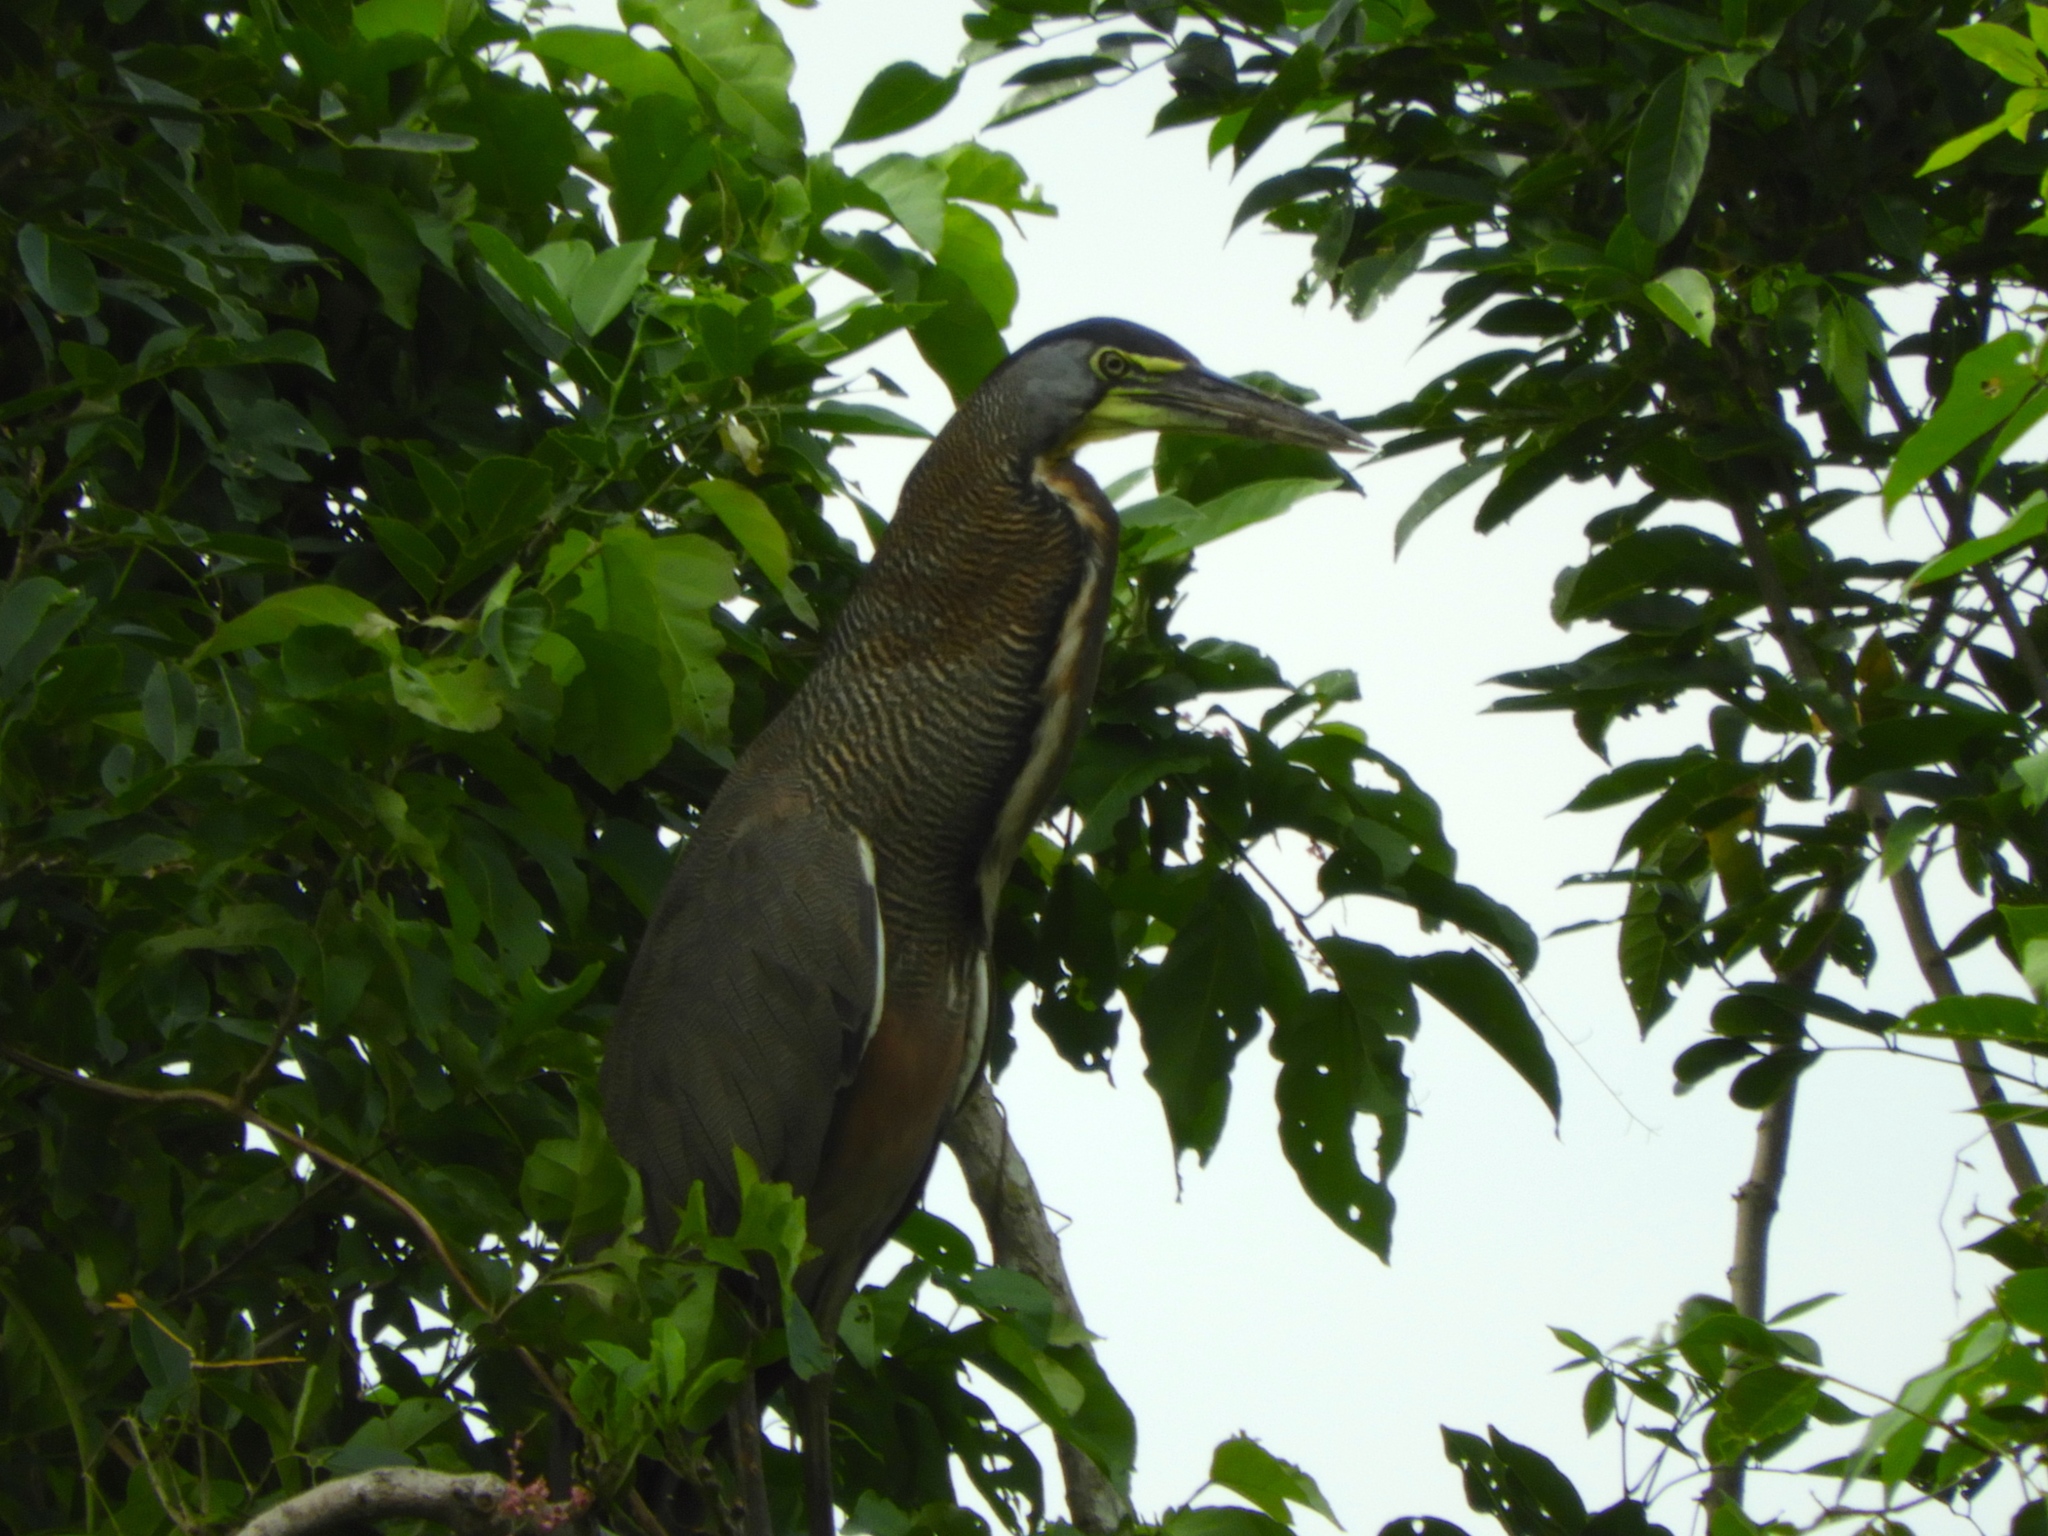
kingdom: Animalia
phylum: Chordata
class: Aves
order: Pelecaniformes
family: Ardeidae
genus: Tigrisoma
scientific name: Tigrisoma mexicanum
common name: Bare-throated tiger-heron
